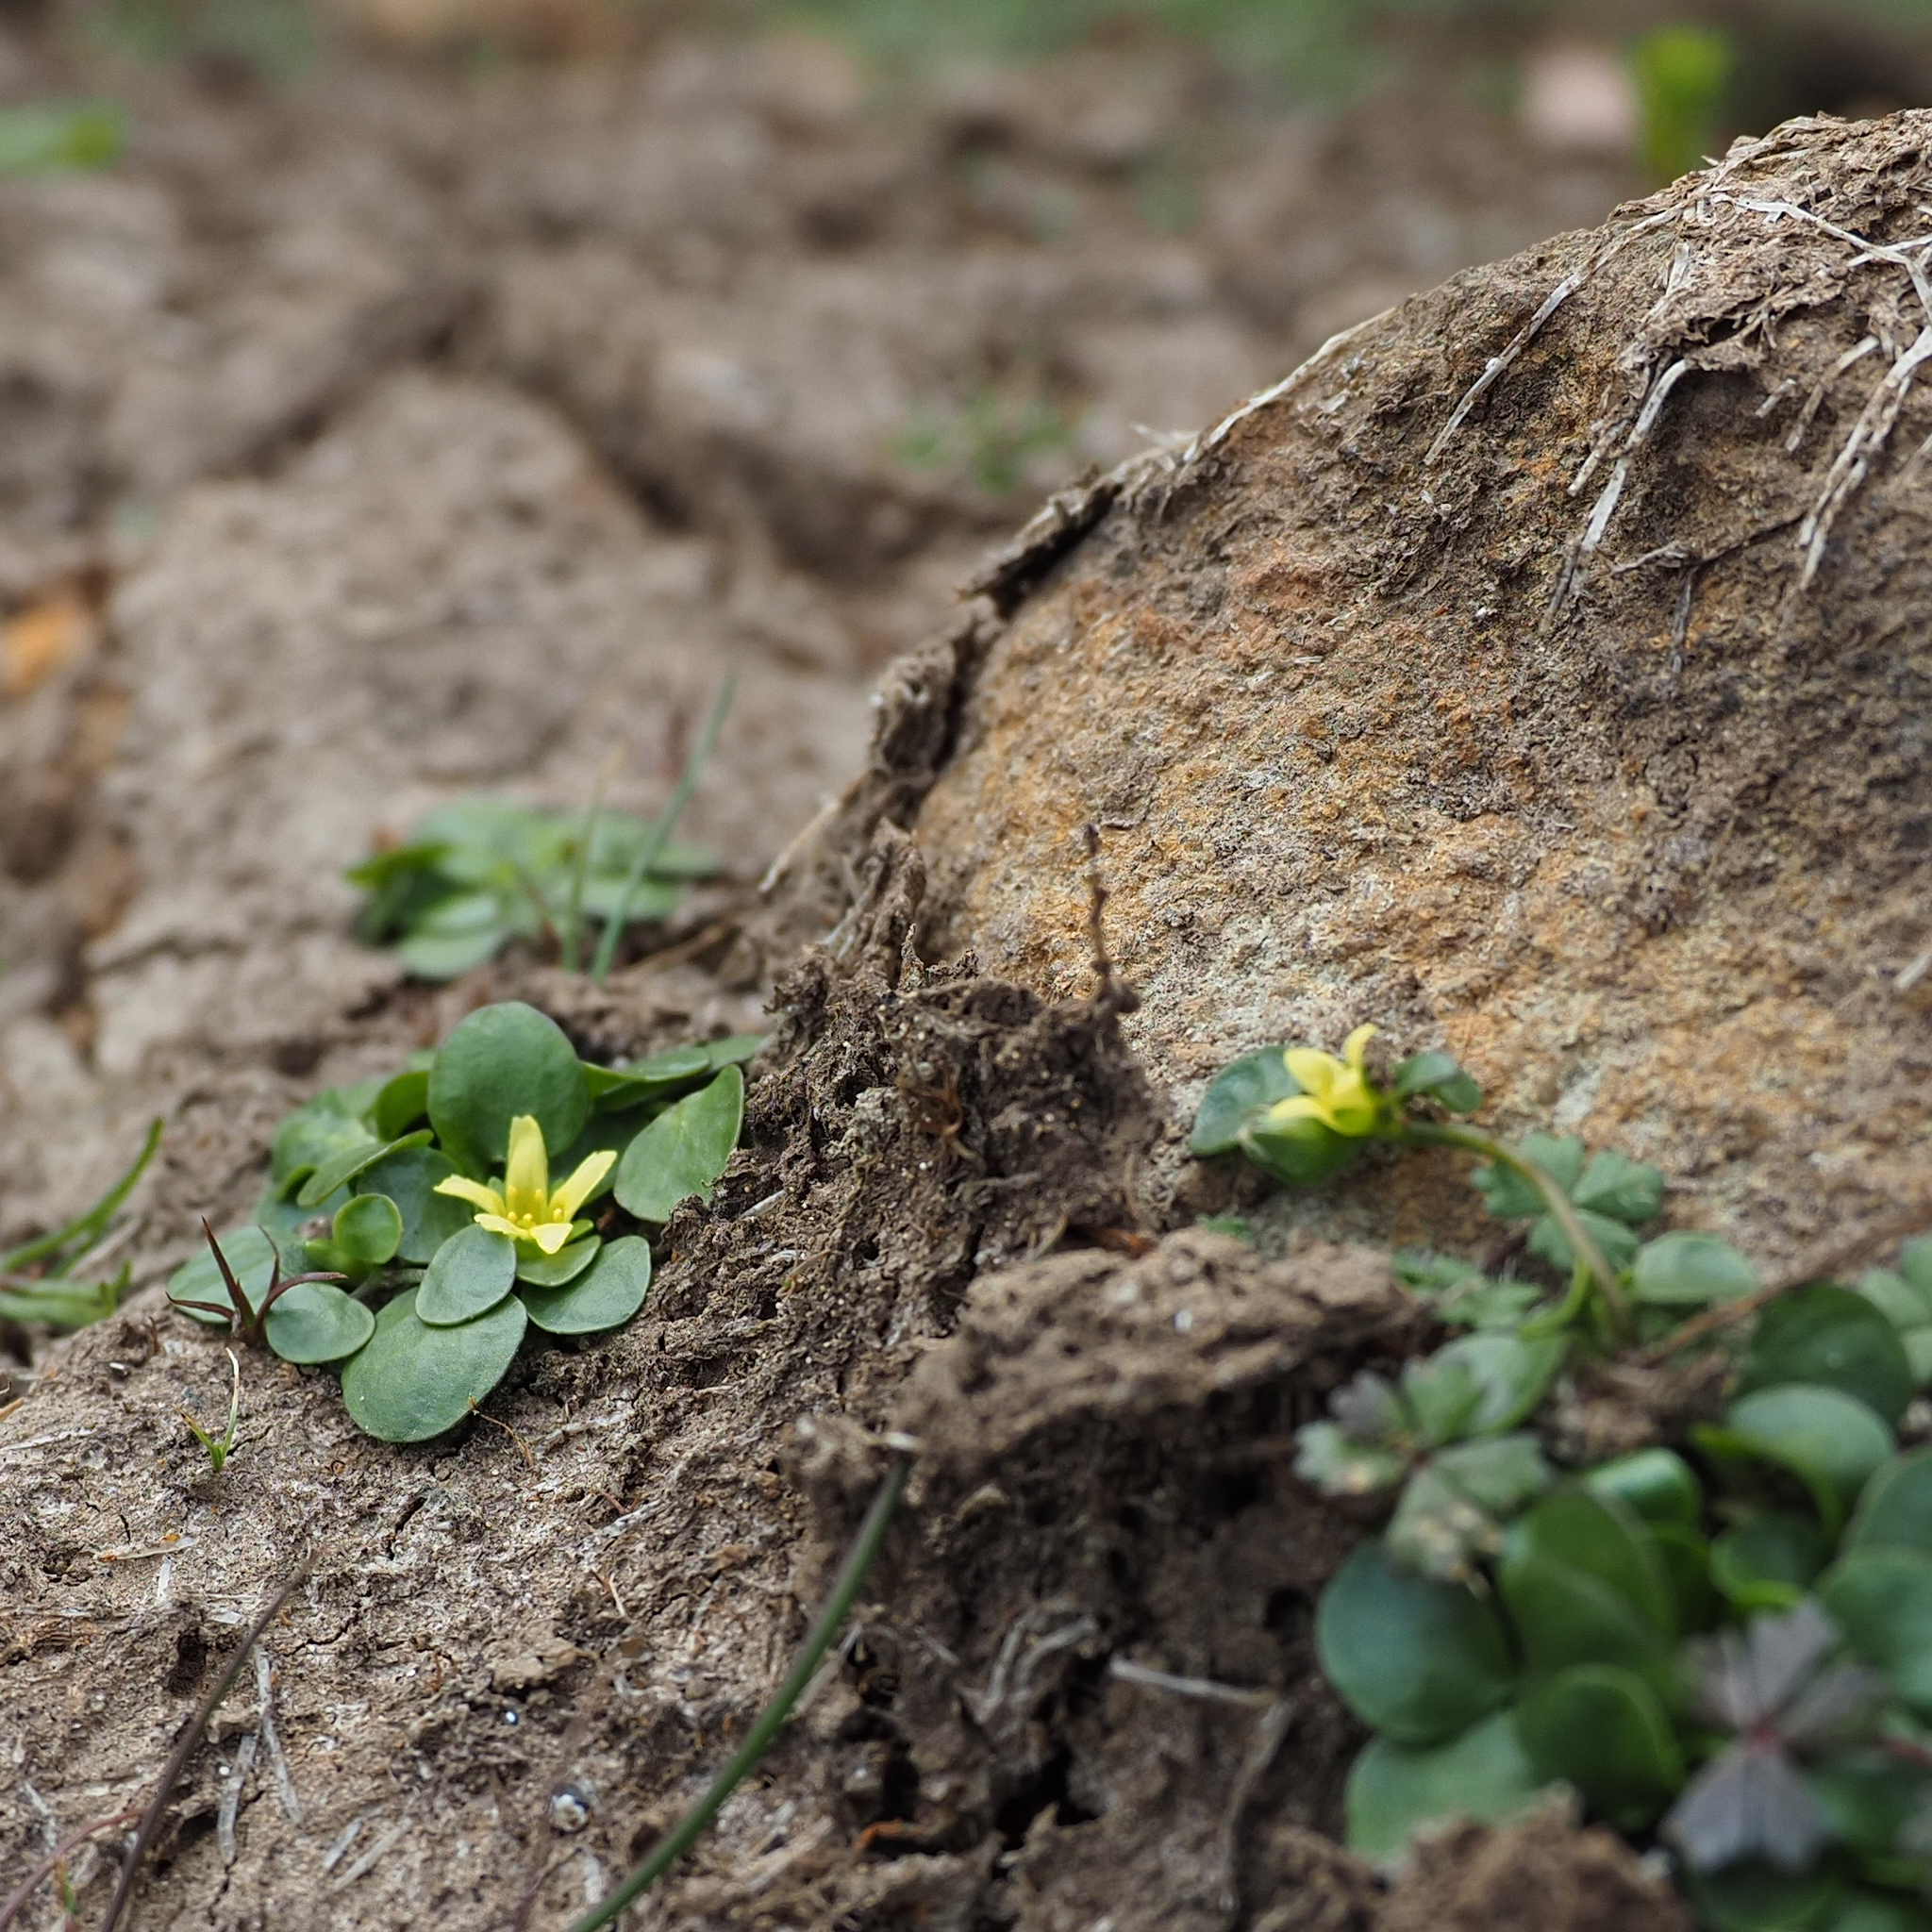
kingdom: Plantae
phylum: Tracheophyta
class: Magnoliopsida
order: Asterales
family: Menyanthaceae
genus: Liparophyllum
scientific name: Liparophyllum exiguum
